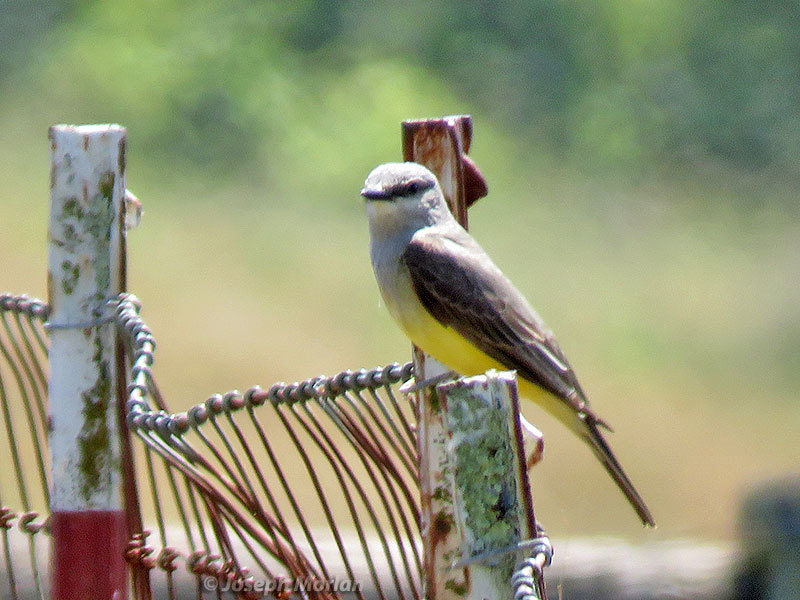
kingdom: Animalia
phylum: Chordata
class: Aves
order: Passeriformes
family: Tyrannidae
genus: Tyrannus
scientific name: Tyrannus verticalis
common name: Western kingbird
